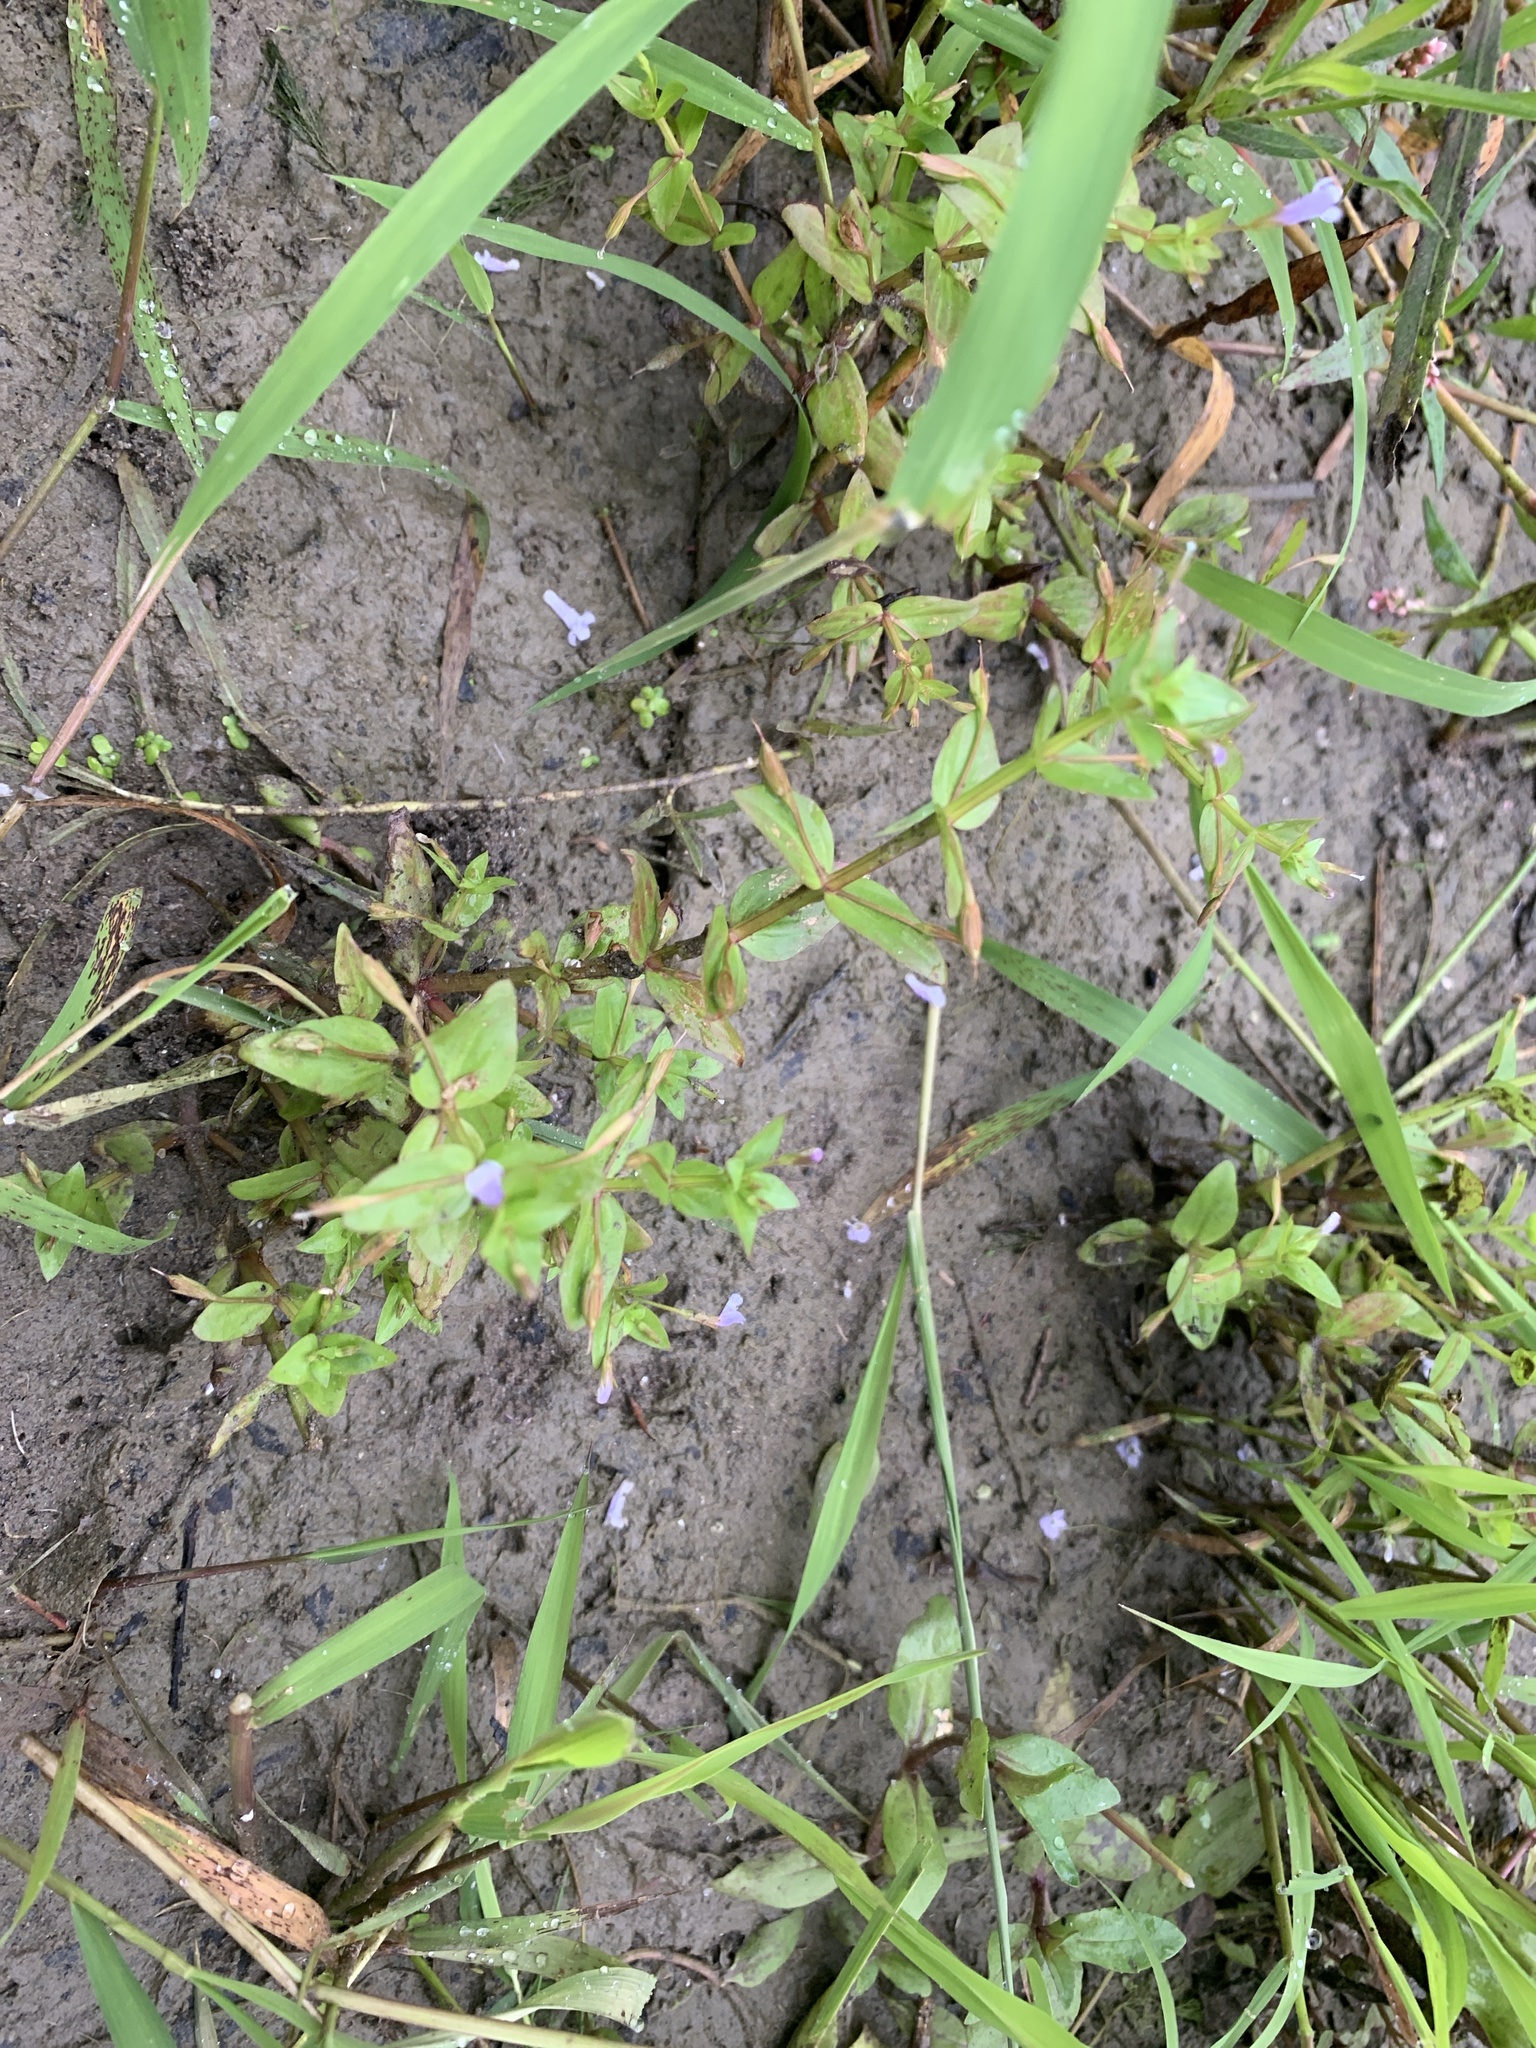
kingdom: Plantae
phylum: Tracheophyta
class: Magnoliopsida
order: Lamiales
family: Linderniaceae
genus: Lindernia
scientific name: Lindernia dubia
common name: Annual false pimpernel
